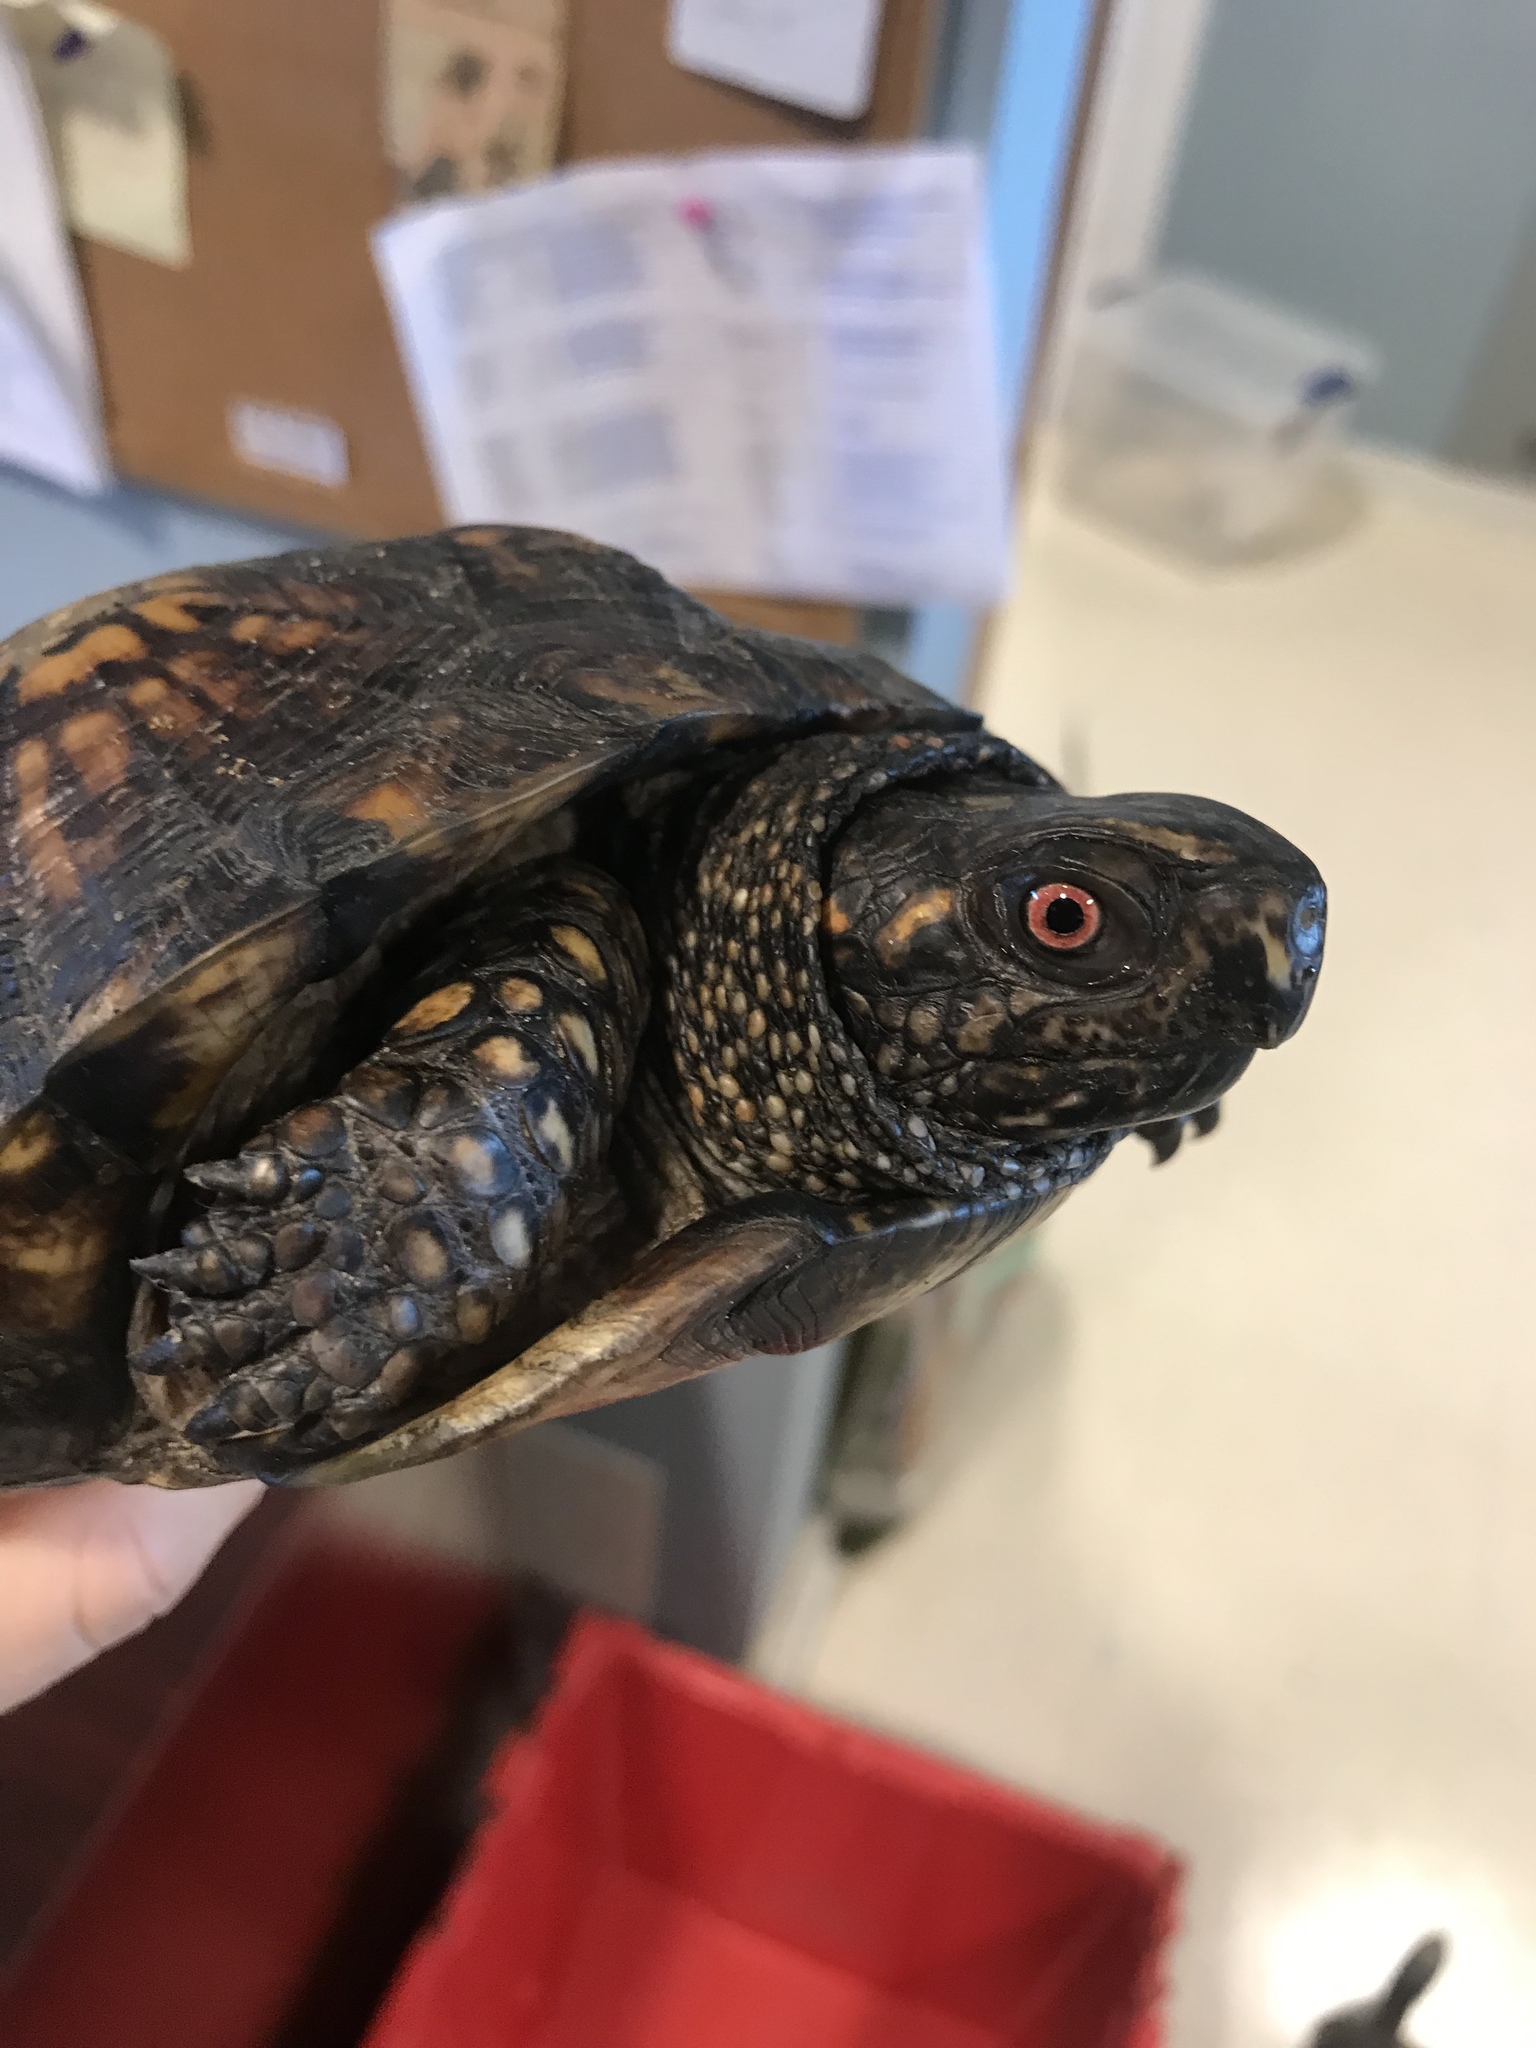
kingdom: Animalia
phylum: Chordata
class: Testudines
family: Emydidae
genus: Terrapene
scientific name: Terrapene carolina
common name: Common box turtle
